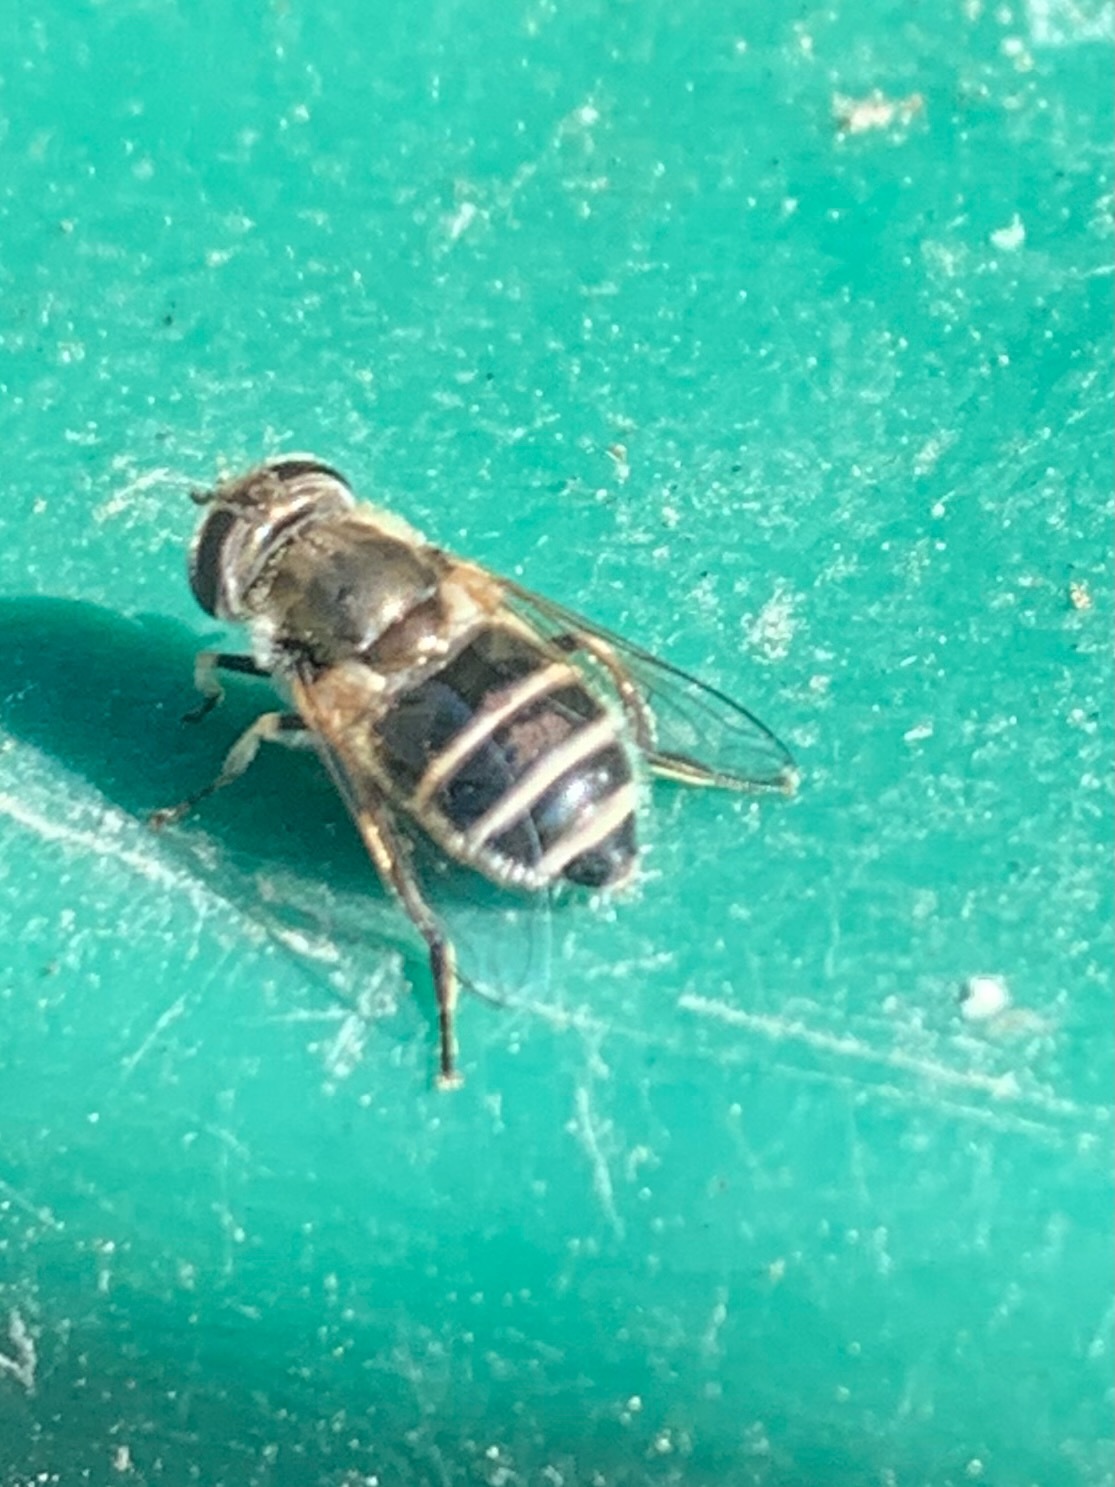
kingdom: Animalia
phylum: Arthropoda
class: Insecta
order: Diptera
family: Syrphidae
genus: Eristalis
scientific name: Eristalis arbustorum
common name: Hover fly
